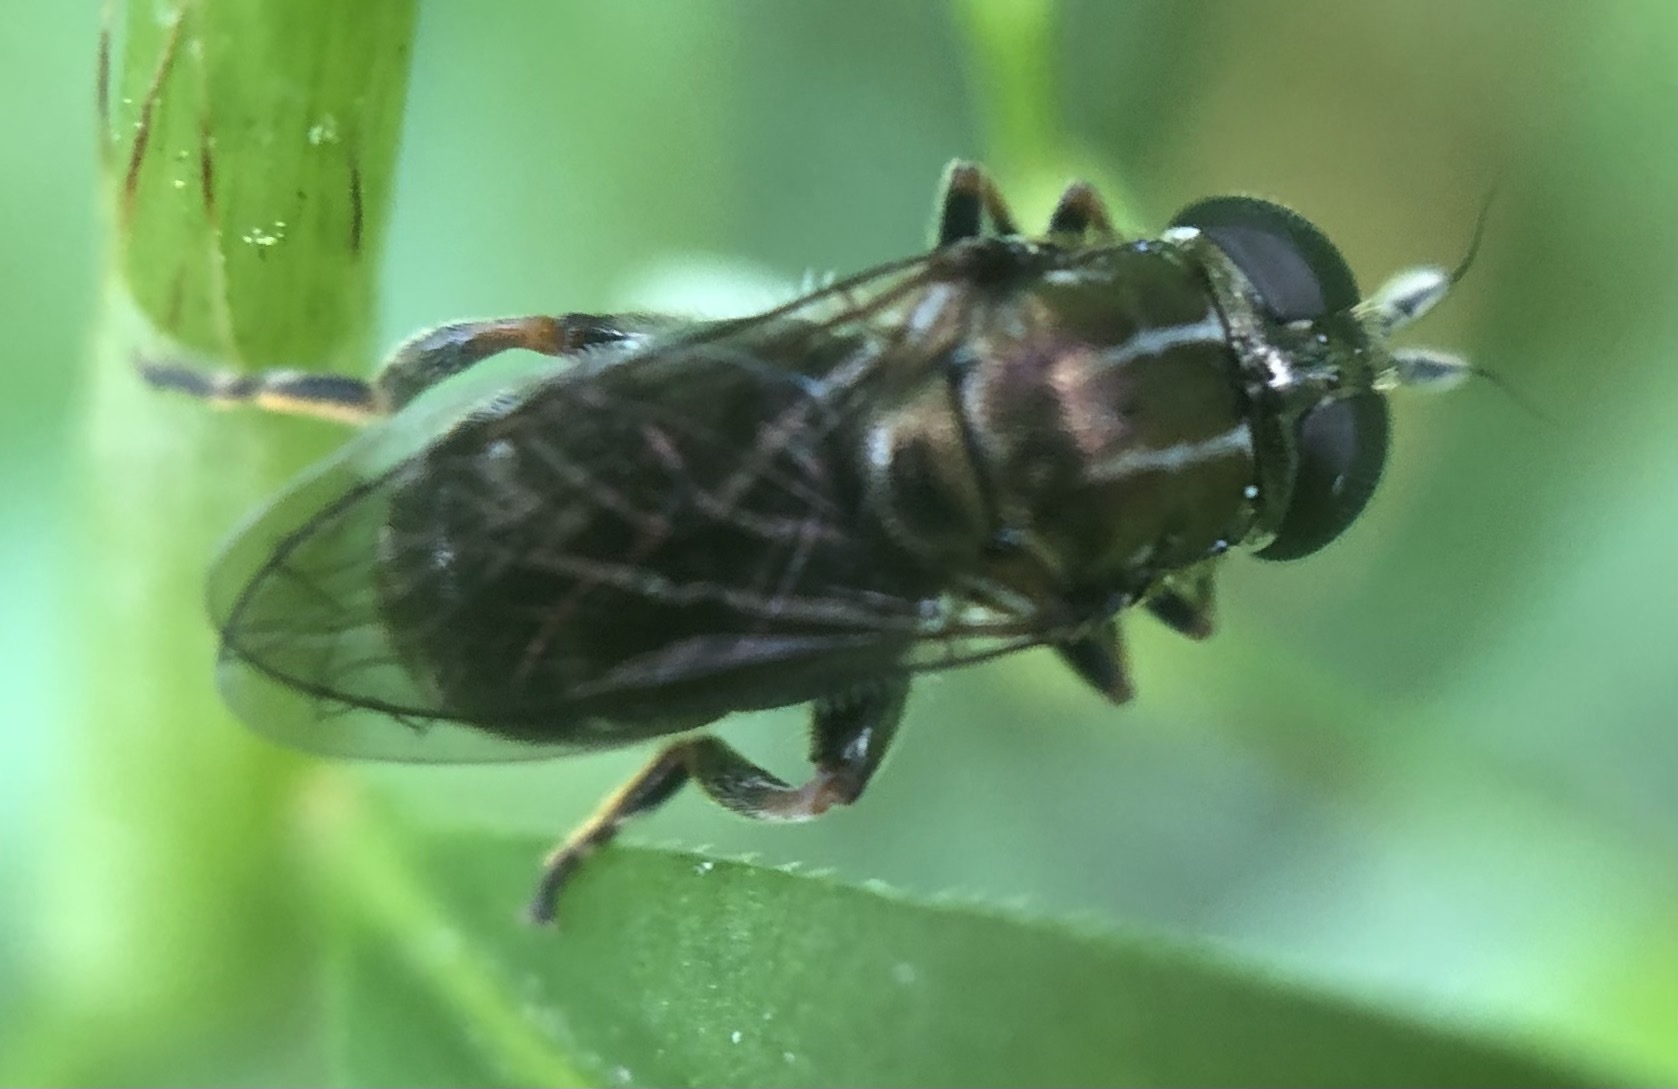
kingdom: Animalia
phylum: Arthropoda
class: Insecta
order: Diptera
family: Syrphidae
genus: Eumerus
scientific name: Eumerus
